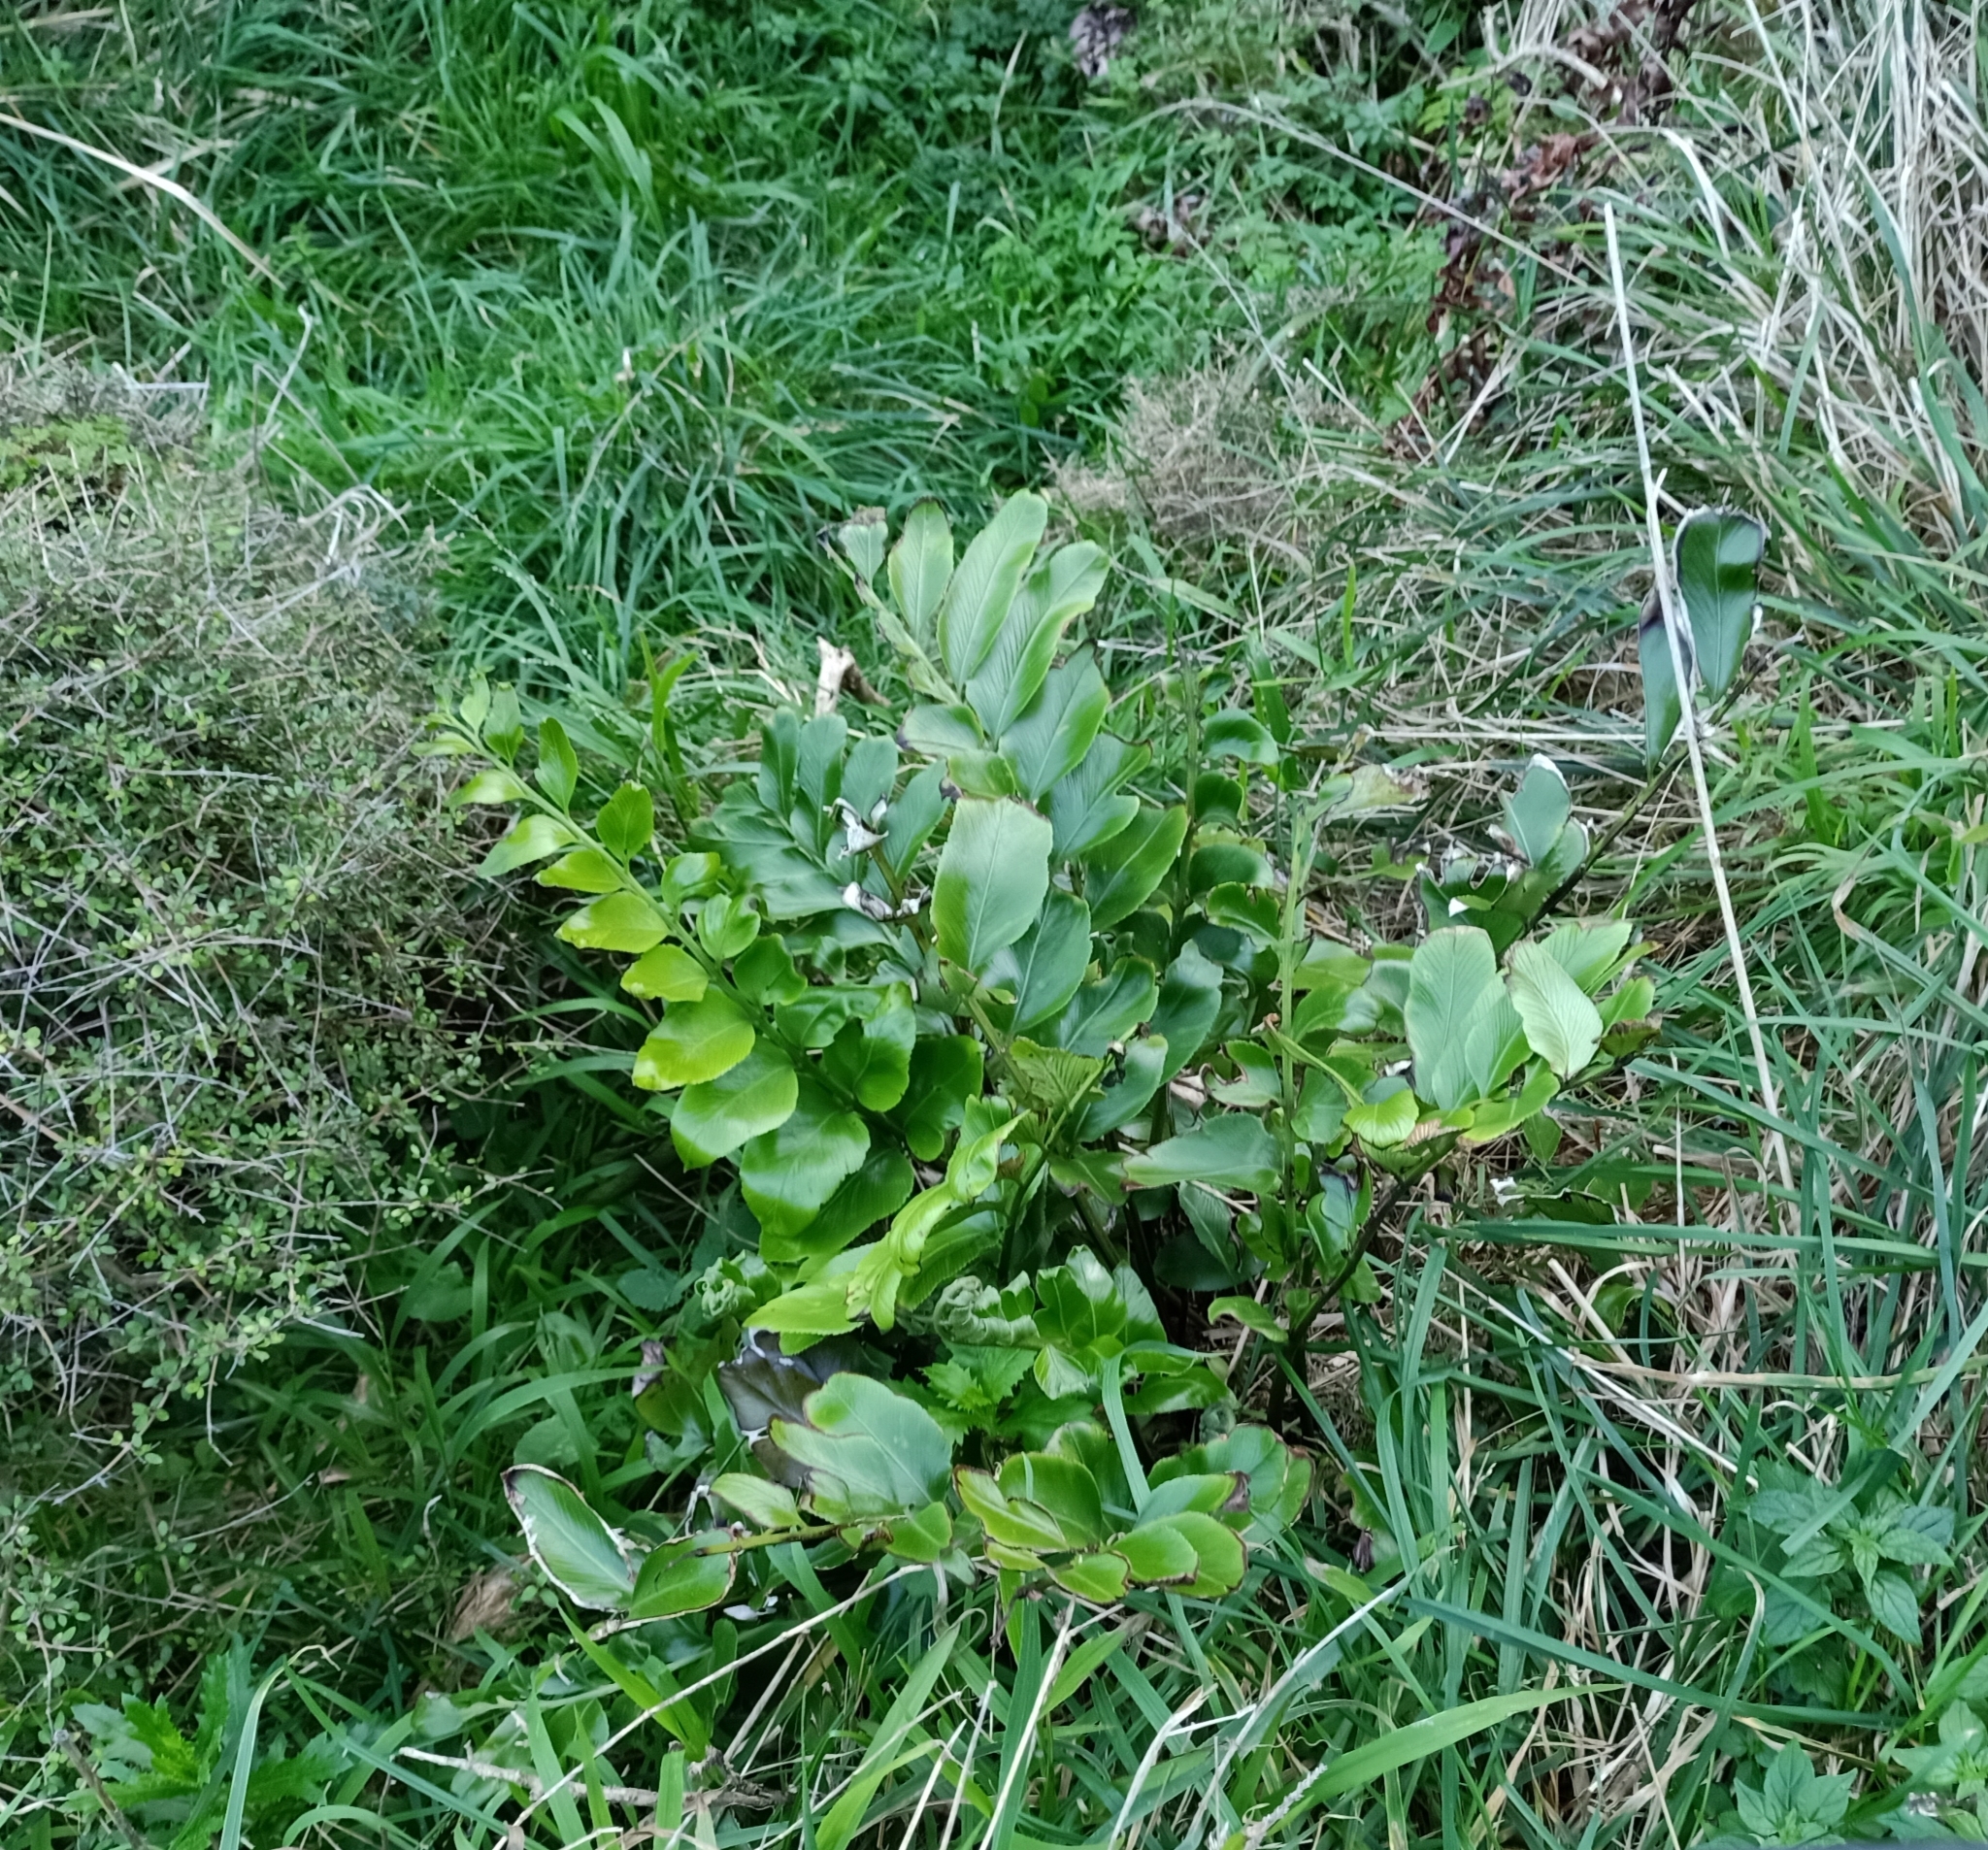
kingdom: Plantae
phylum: Tracheophyta
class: Polypodiopsida
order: Polypodiales
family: Aspleniaceae
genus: Asplenium
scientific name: Asplenium oblongifolium
